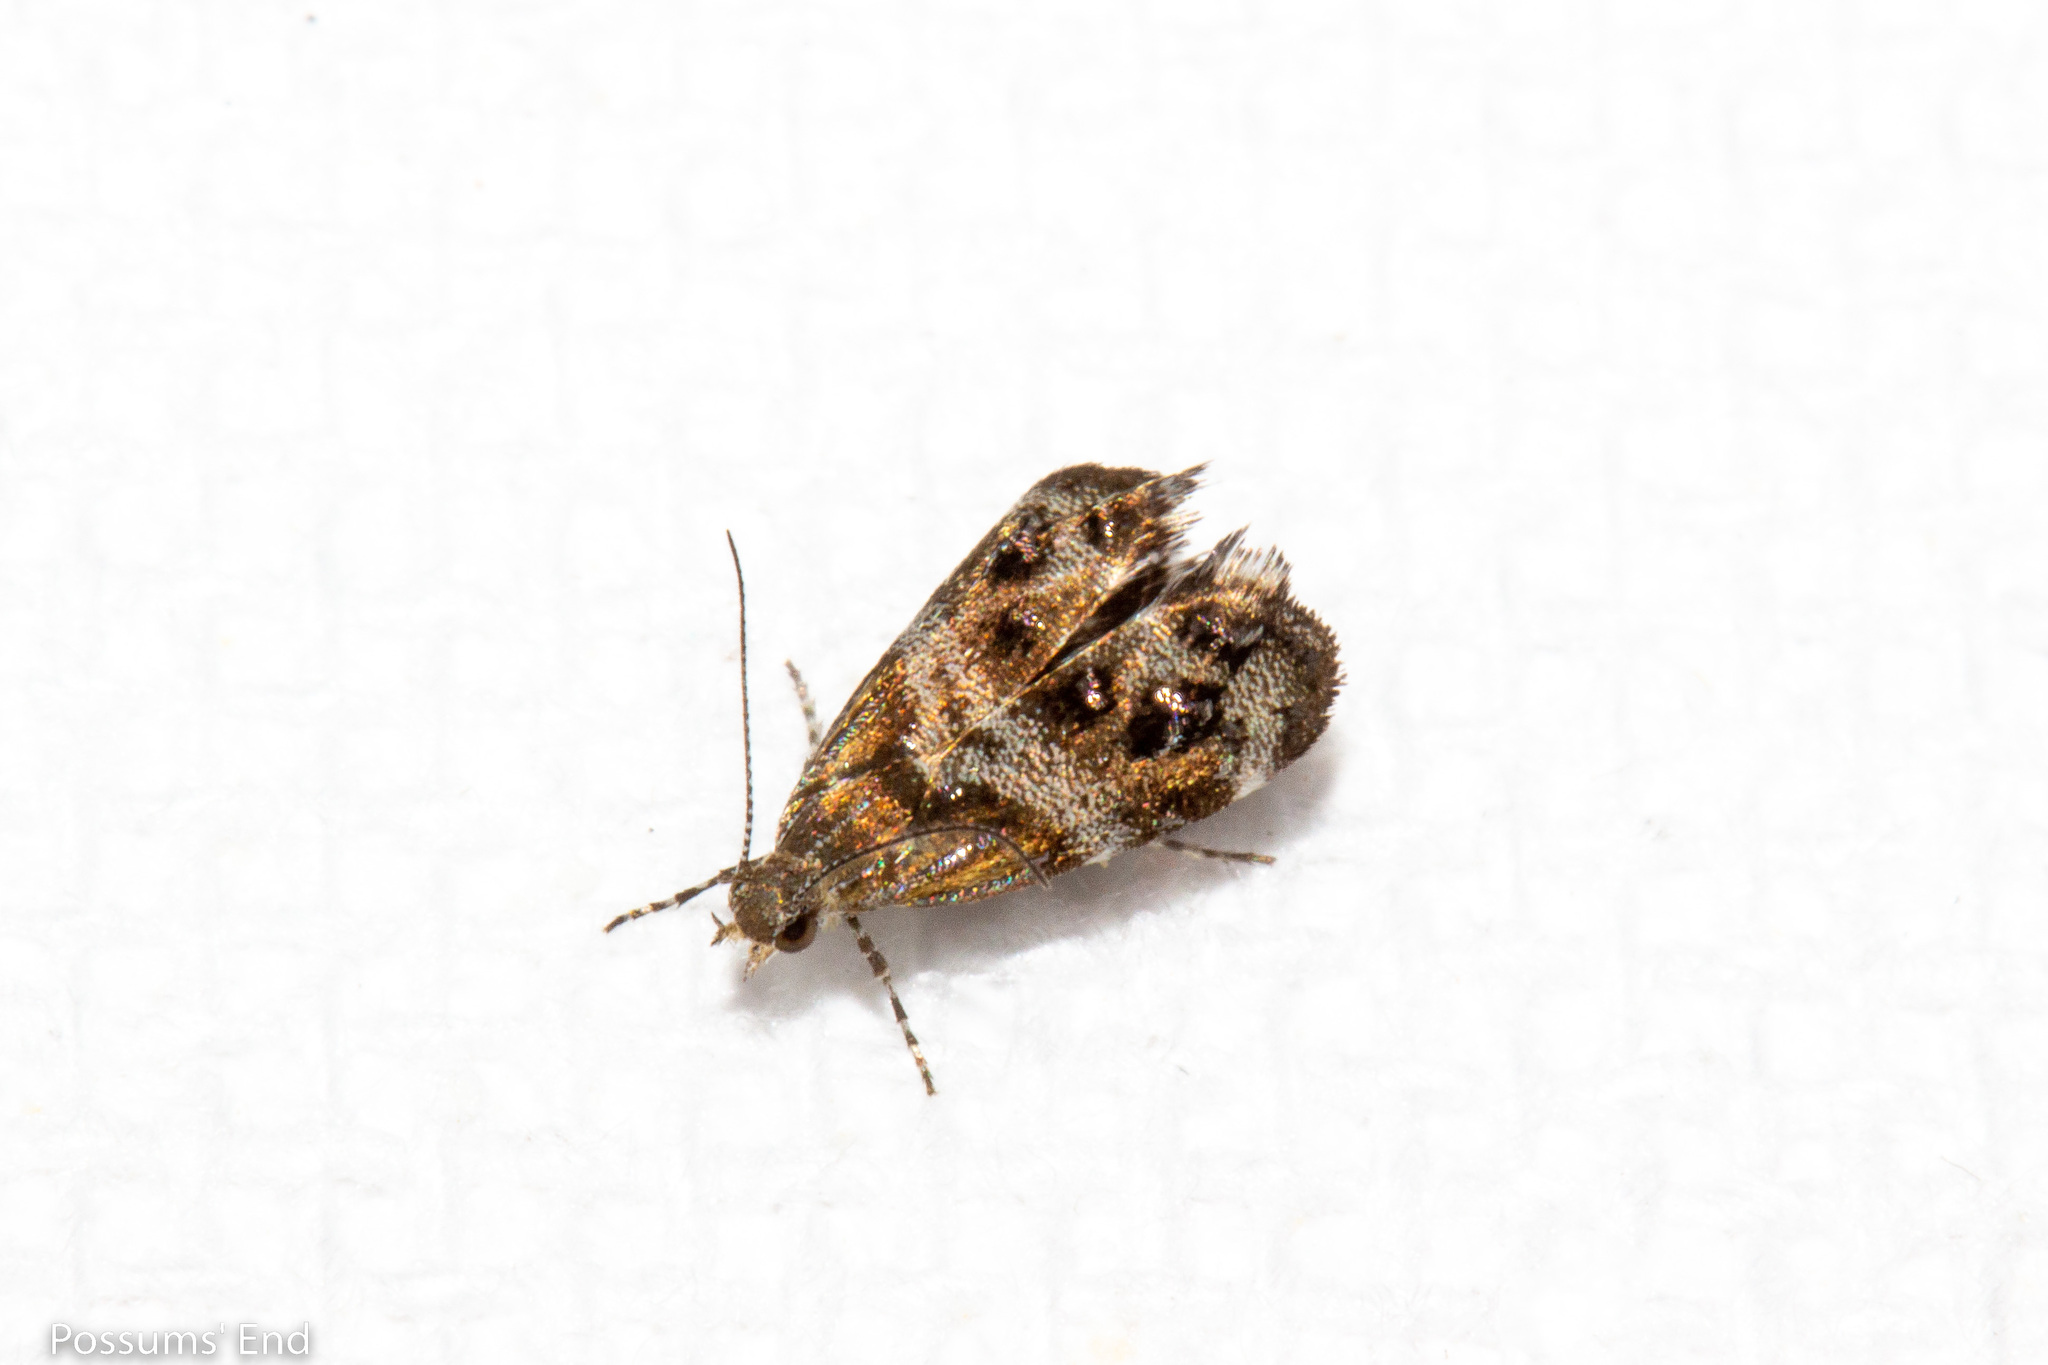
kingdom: Animalia
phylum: Arthropoda
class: Insecta
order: Lepidoptera
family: Choreutidae
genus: Tebenna
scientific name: Tebenna micalis
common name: Vagrant twitcher
